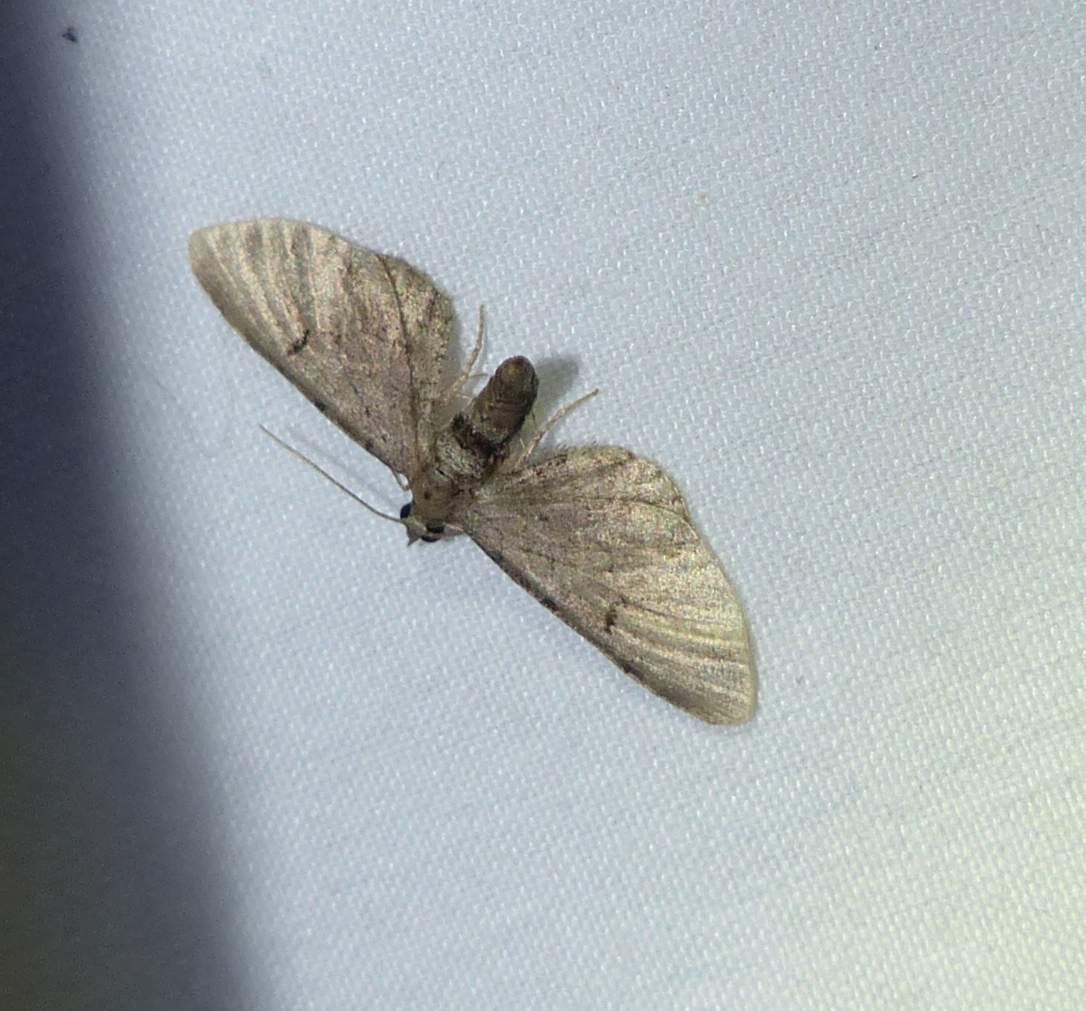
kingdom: Animalia
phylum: Arthropoda
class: Insecta
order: Lepidoptera
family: Geometridae
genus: Eupithecia
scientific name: Eupithecia miserulata
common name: Common eupithecia
